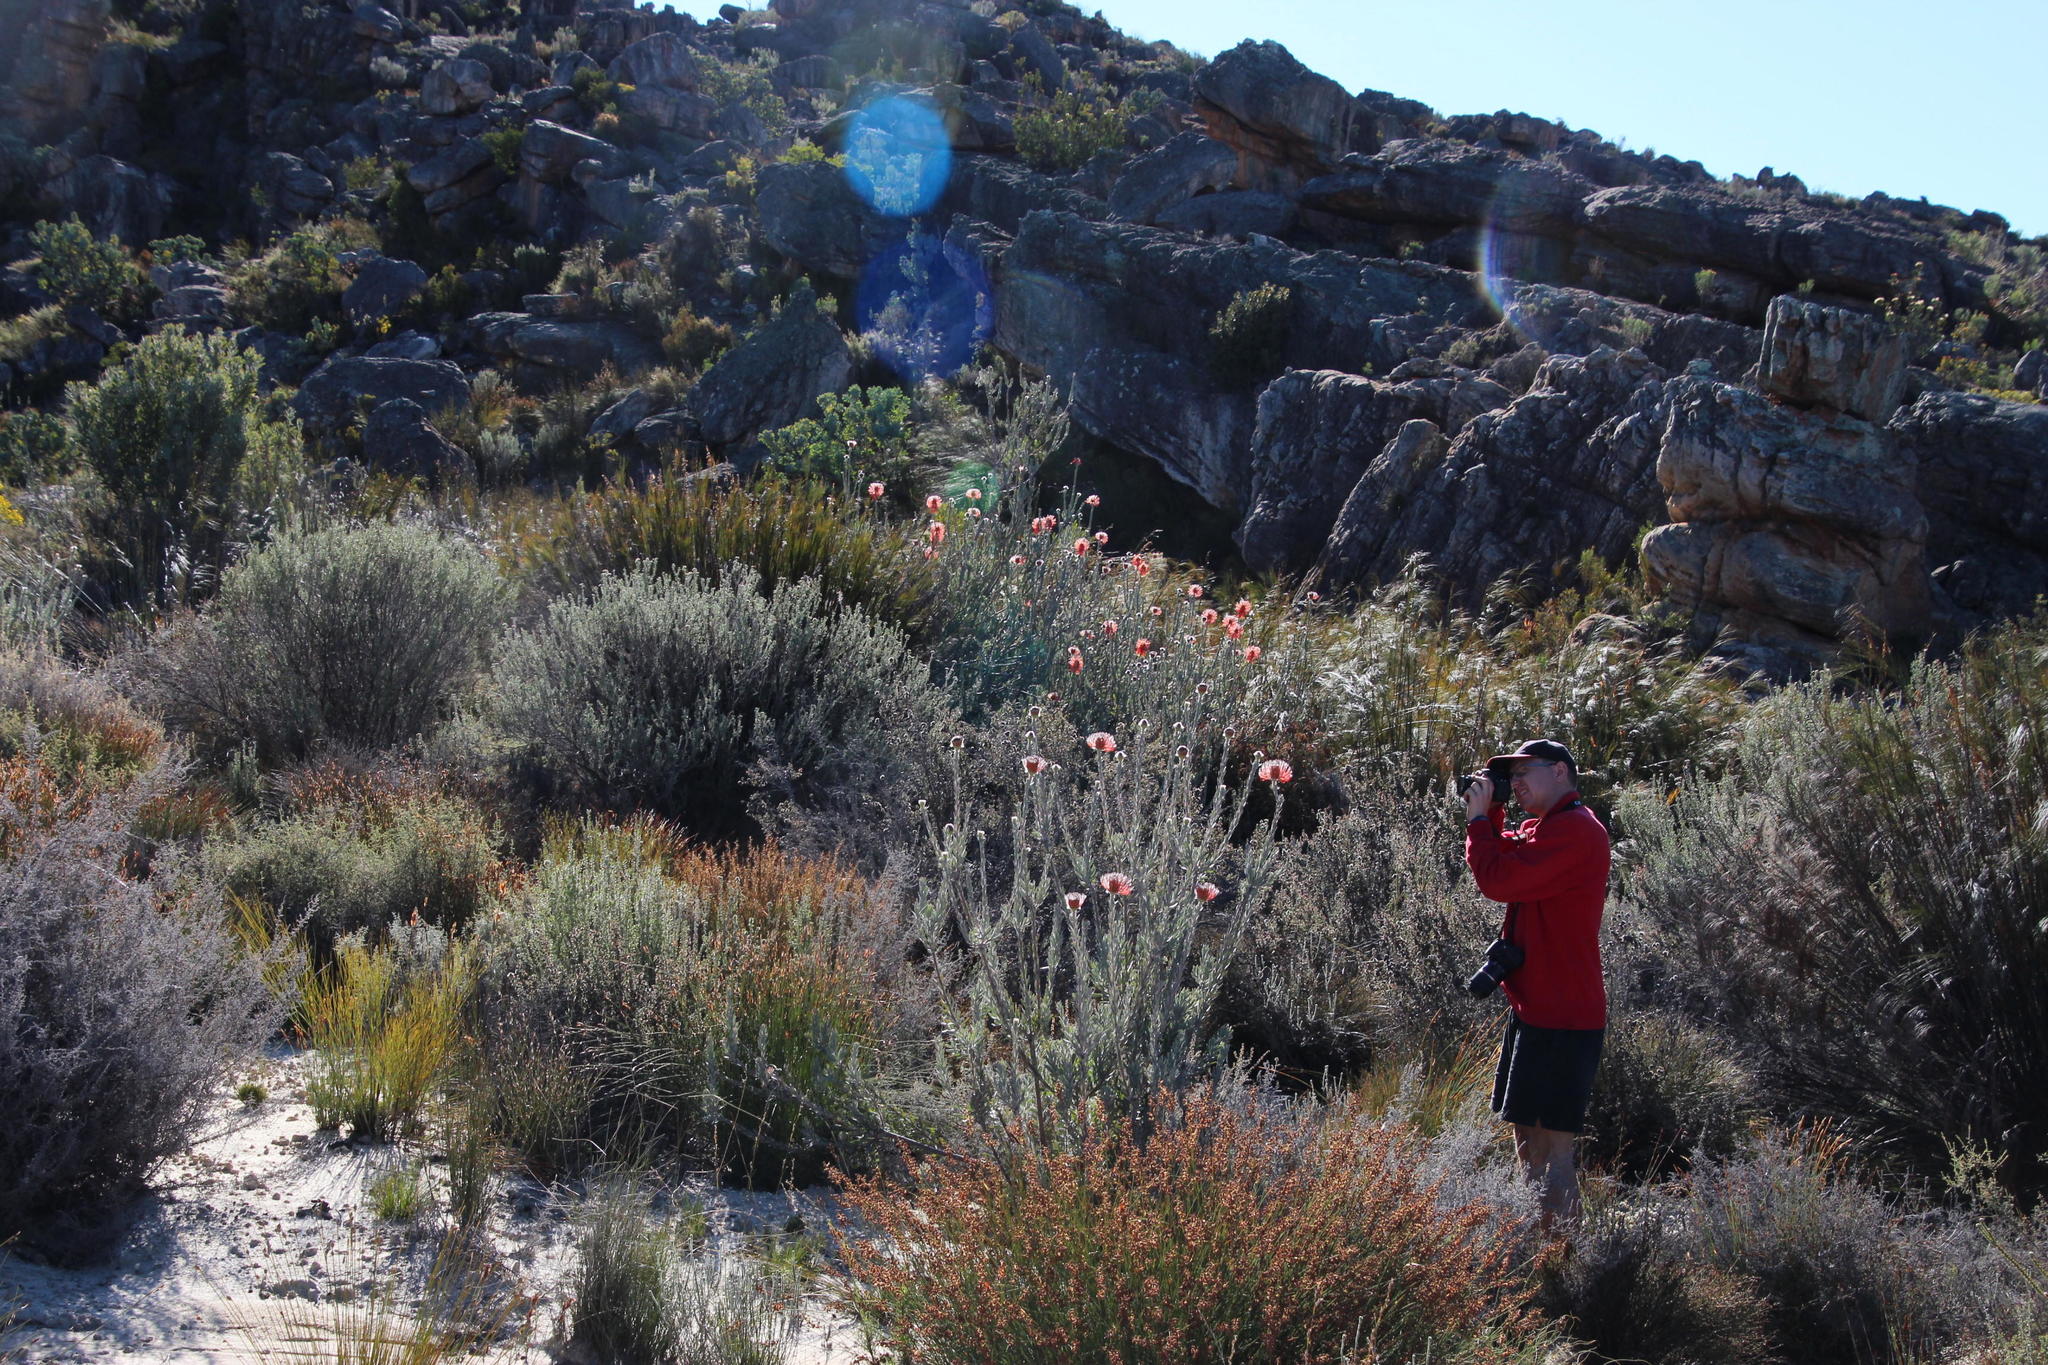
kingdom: Plantae
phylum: Tracheophyta
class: Magnoliopsida
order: Proteales
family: Proteaceae
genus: Leucospermum
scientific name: Leucospermum reflexum
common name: Rocket pincushion
